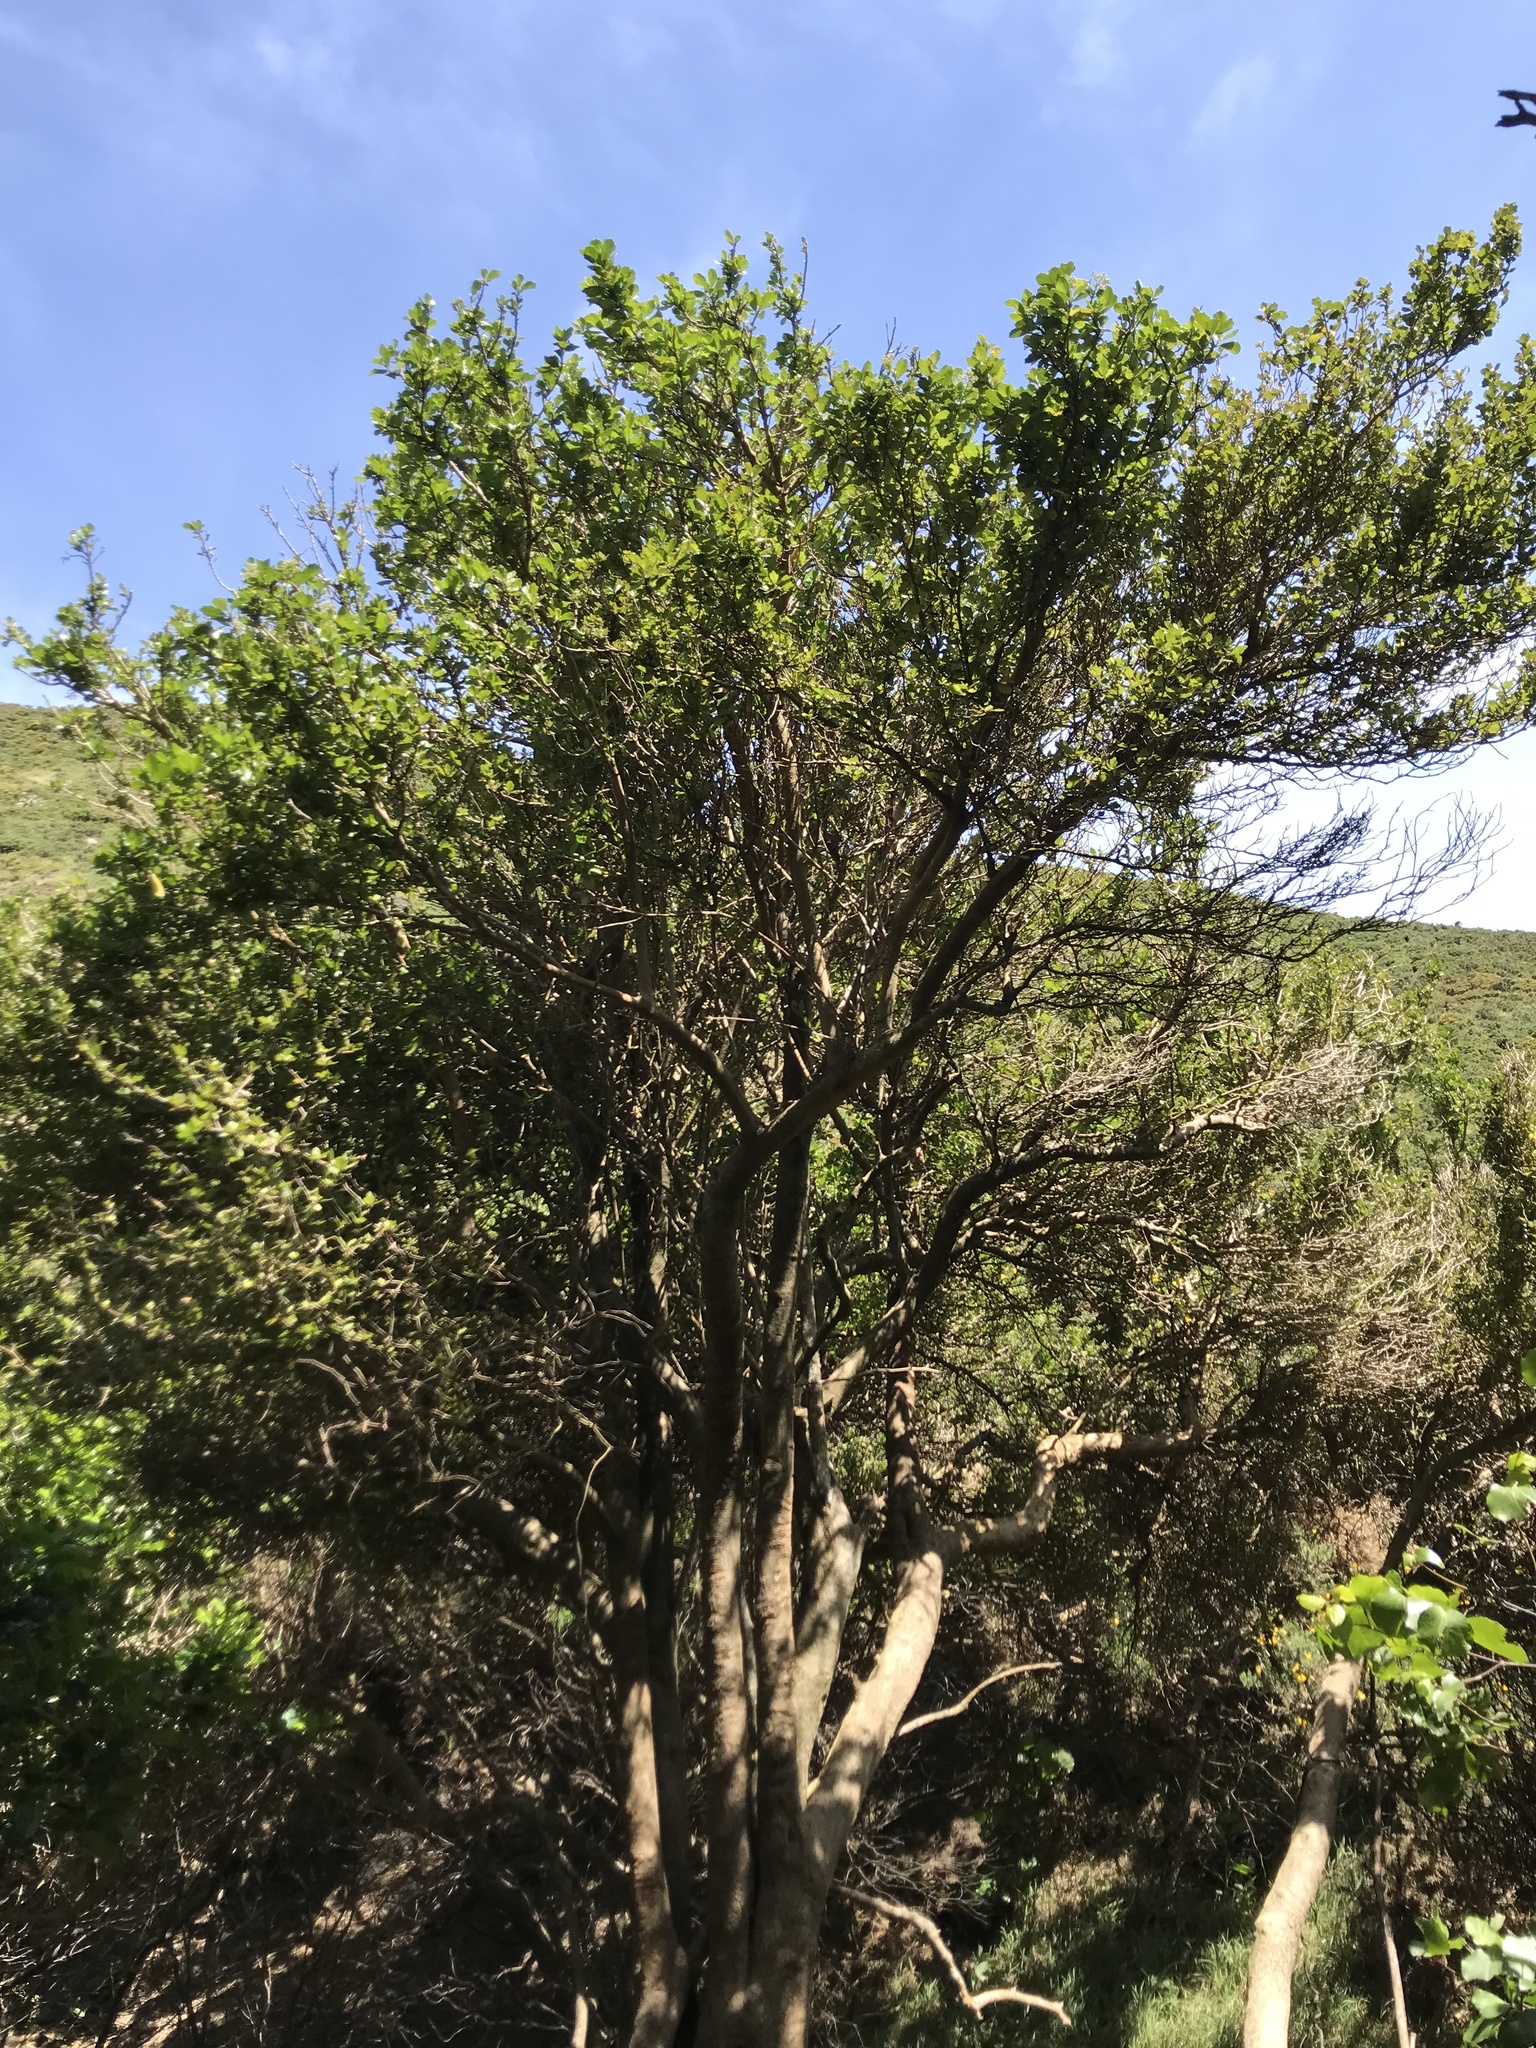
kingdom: Plantae
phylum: Tracheophyta
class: Magnoliopsida
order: Apiales
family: Pennantiaceae
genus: Pennantia
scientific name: Pennantia corymbosa
